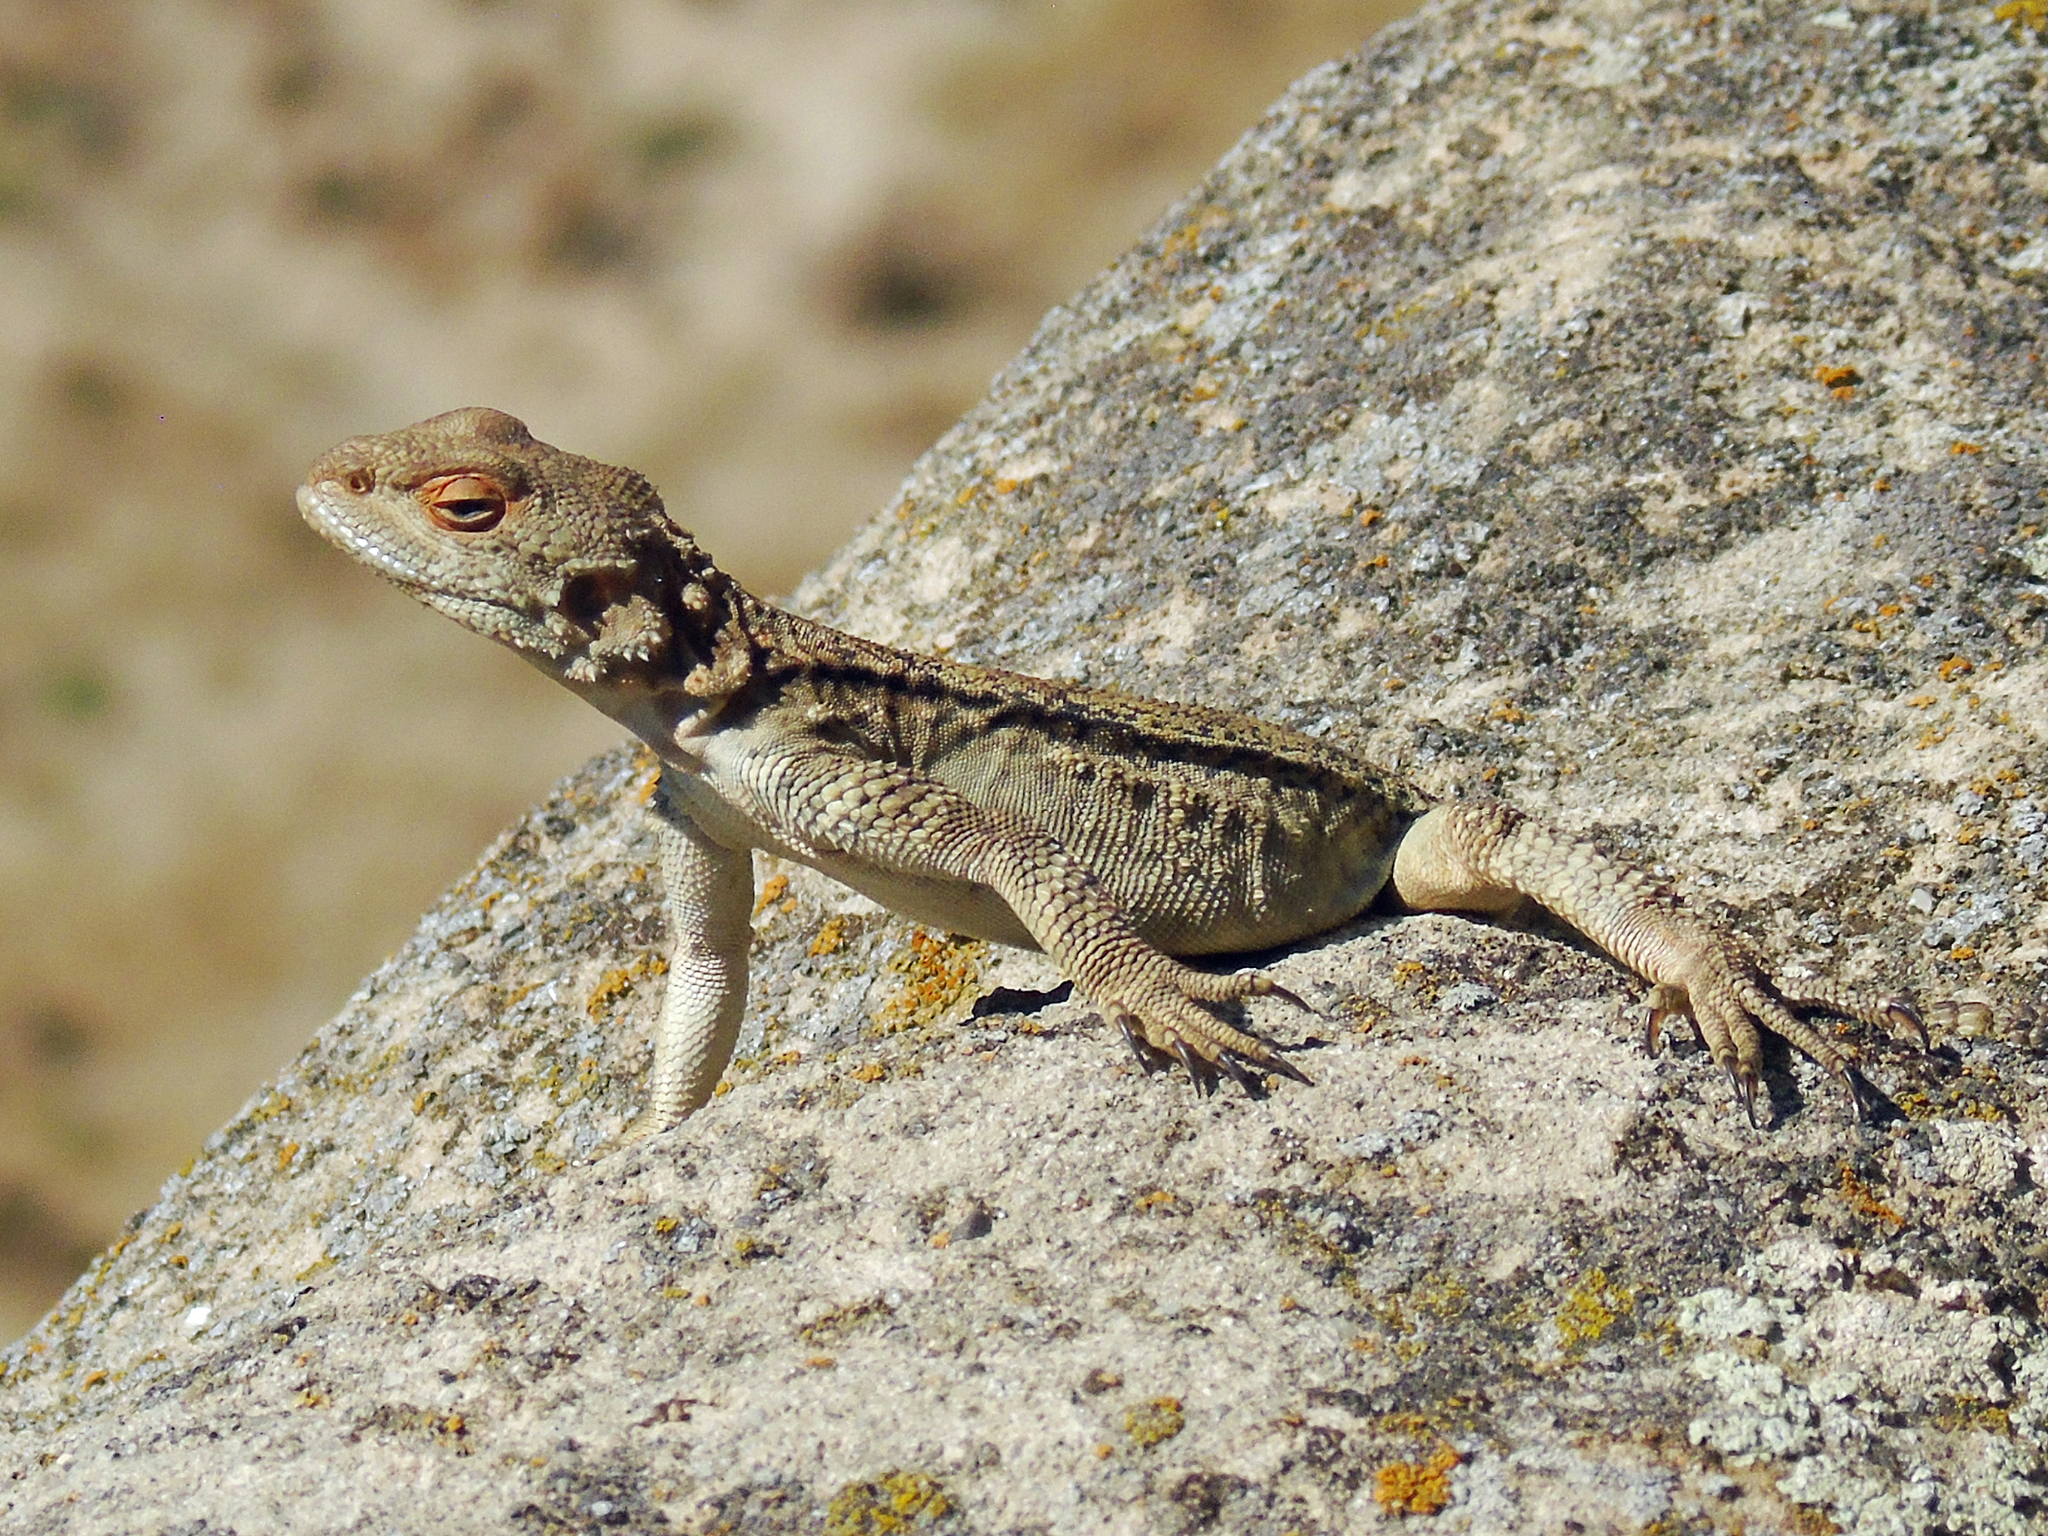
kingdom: Animalia
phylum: Chordata
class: Squamata
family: Agamidae
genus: Paralaudakia
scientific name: Paralaudakia caucasia
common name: Caucasian agama
